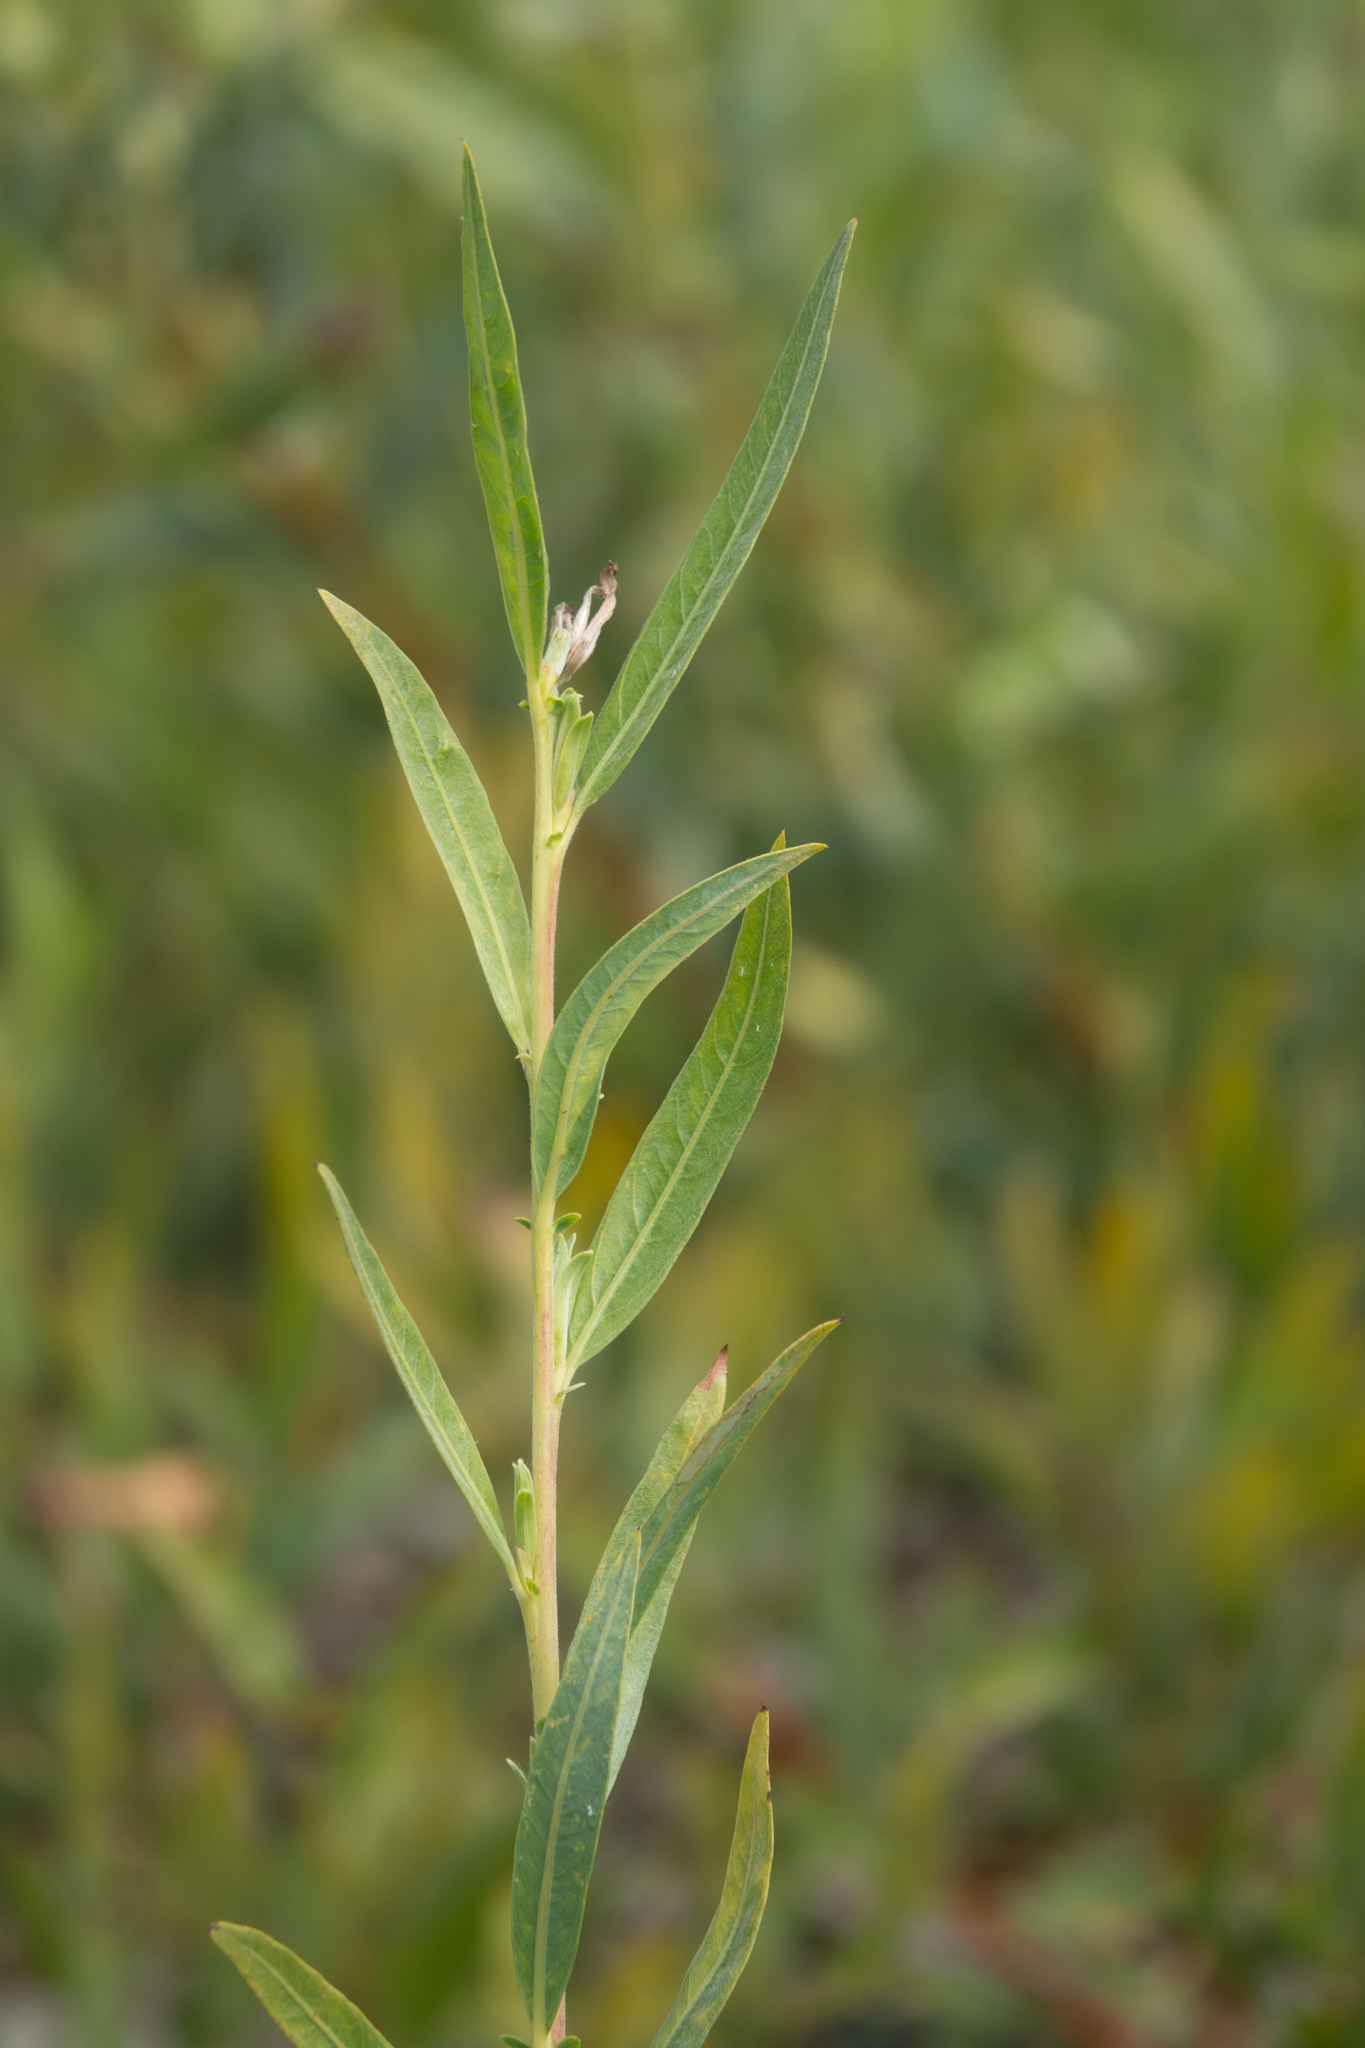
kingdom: Plantae
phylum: Tracheophyta
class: Magnoliopsida
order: Malpighiales
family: Salicaceae
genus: Salix
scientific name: Salix exigua
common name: Coyote willow
